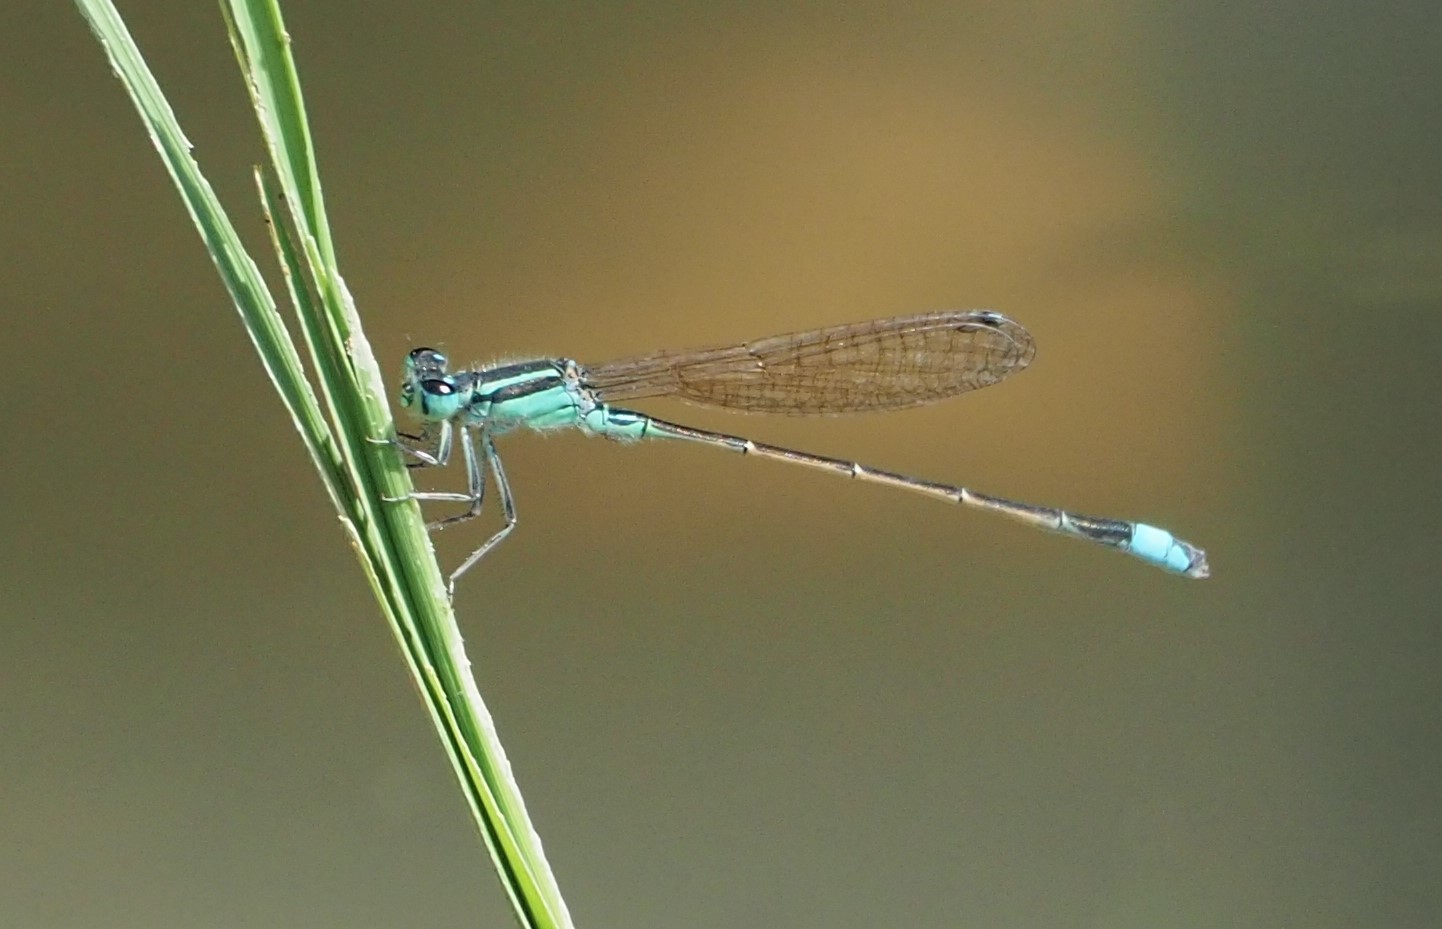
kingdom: Animalia
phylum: Arthropoda
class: Insecta
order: Odonata
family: Coenagrionidae
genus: Ischnura
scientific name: Ischnura senegalensis
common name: Tropical bluetail
